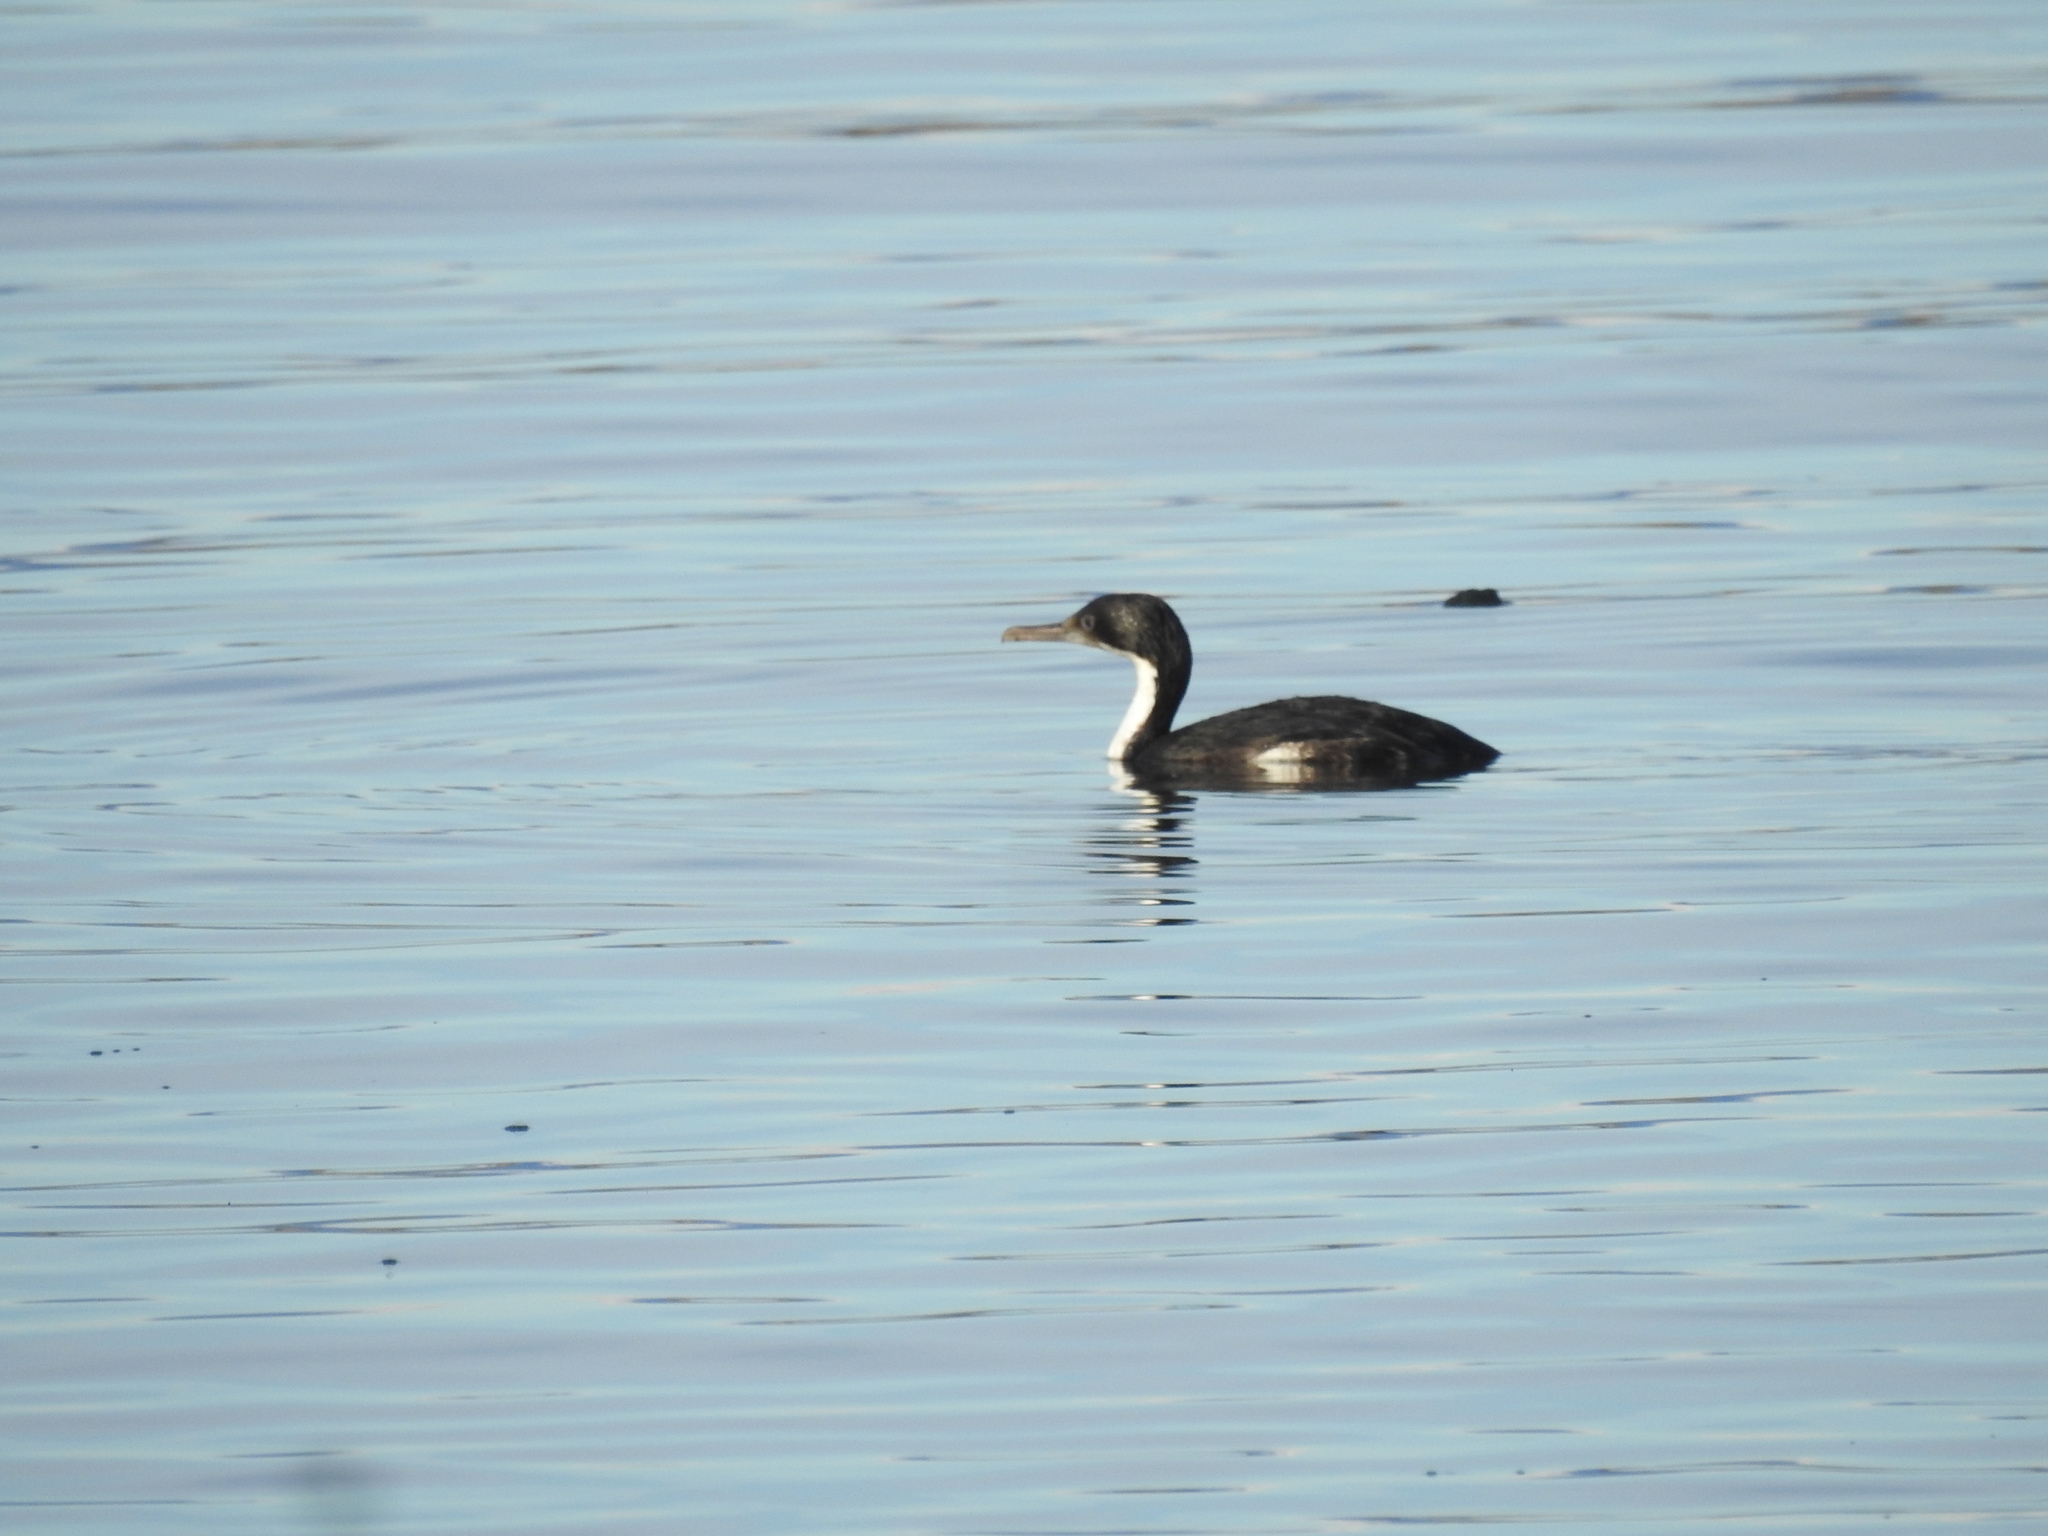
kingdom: Animalia
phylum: Chordata
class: Aves
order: Suliformes
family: Phalacrocoracidae
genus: Leucocarbo
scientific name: Leucocarbo atriceps
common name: Imperial shag
